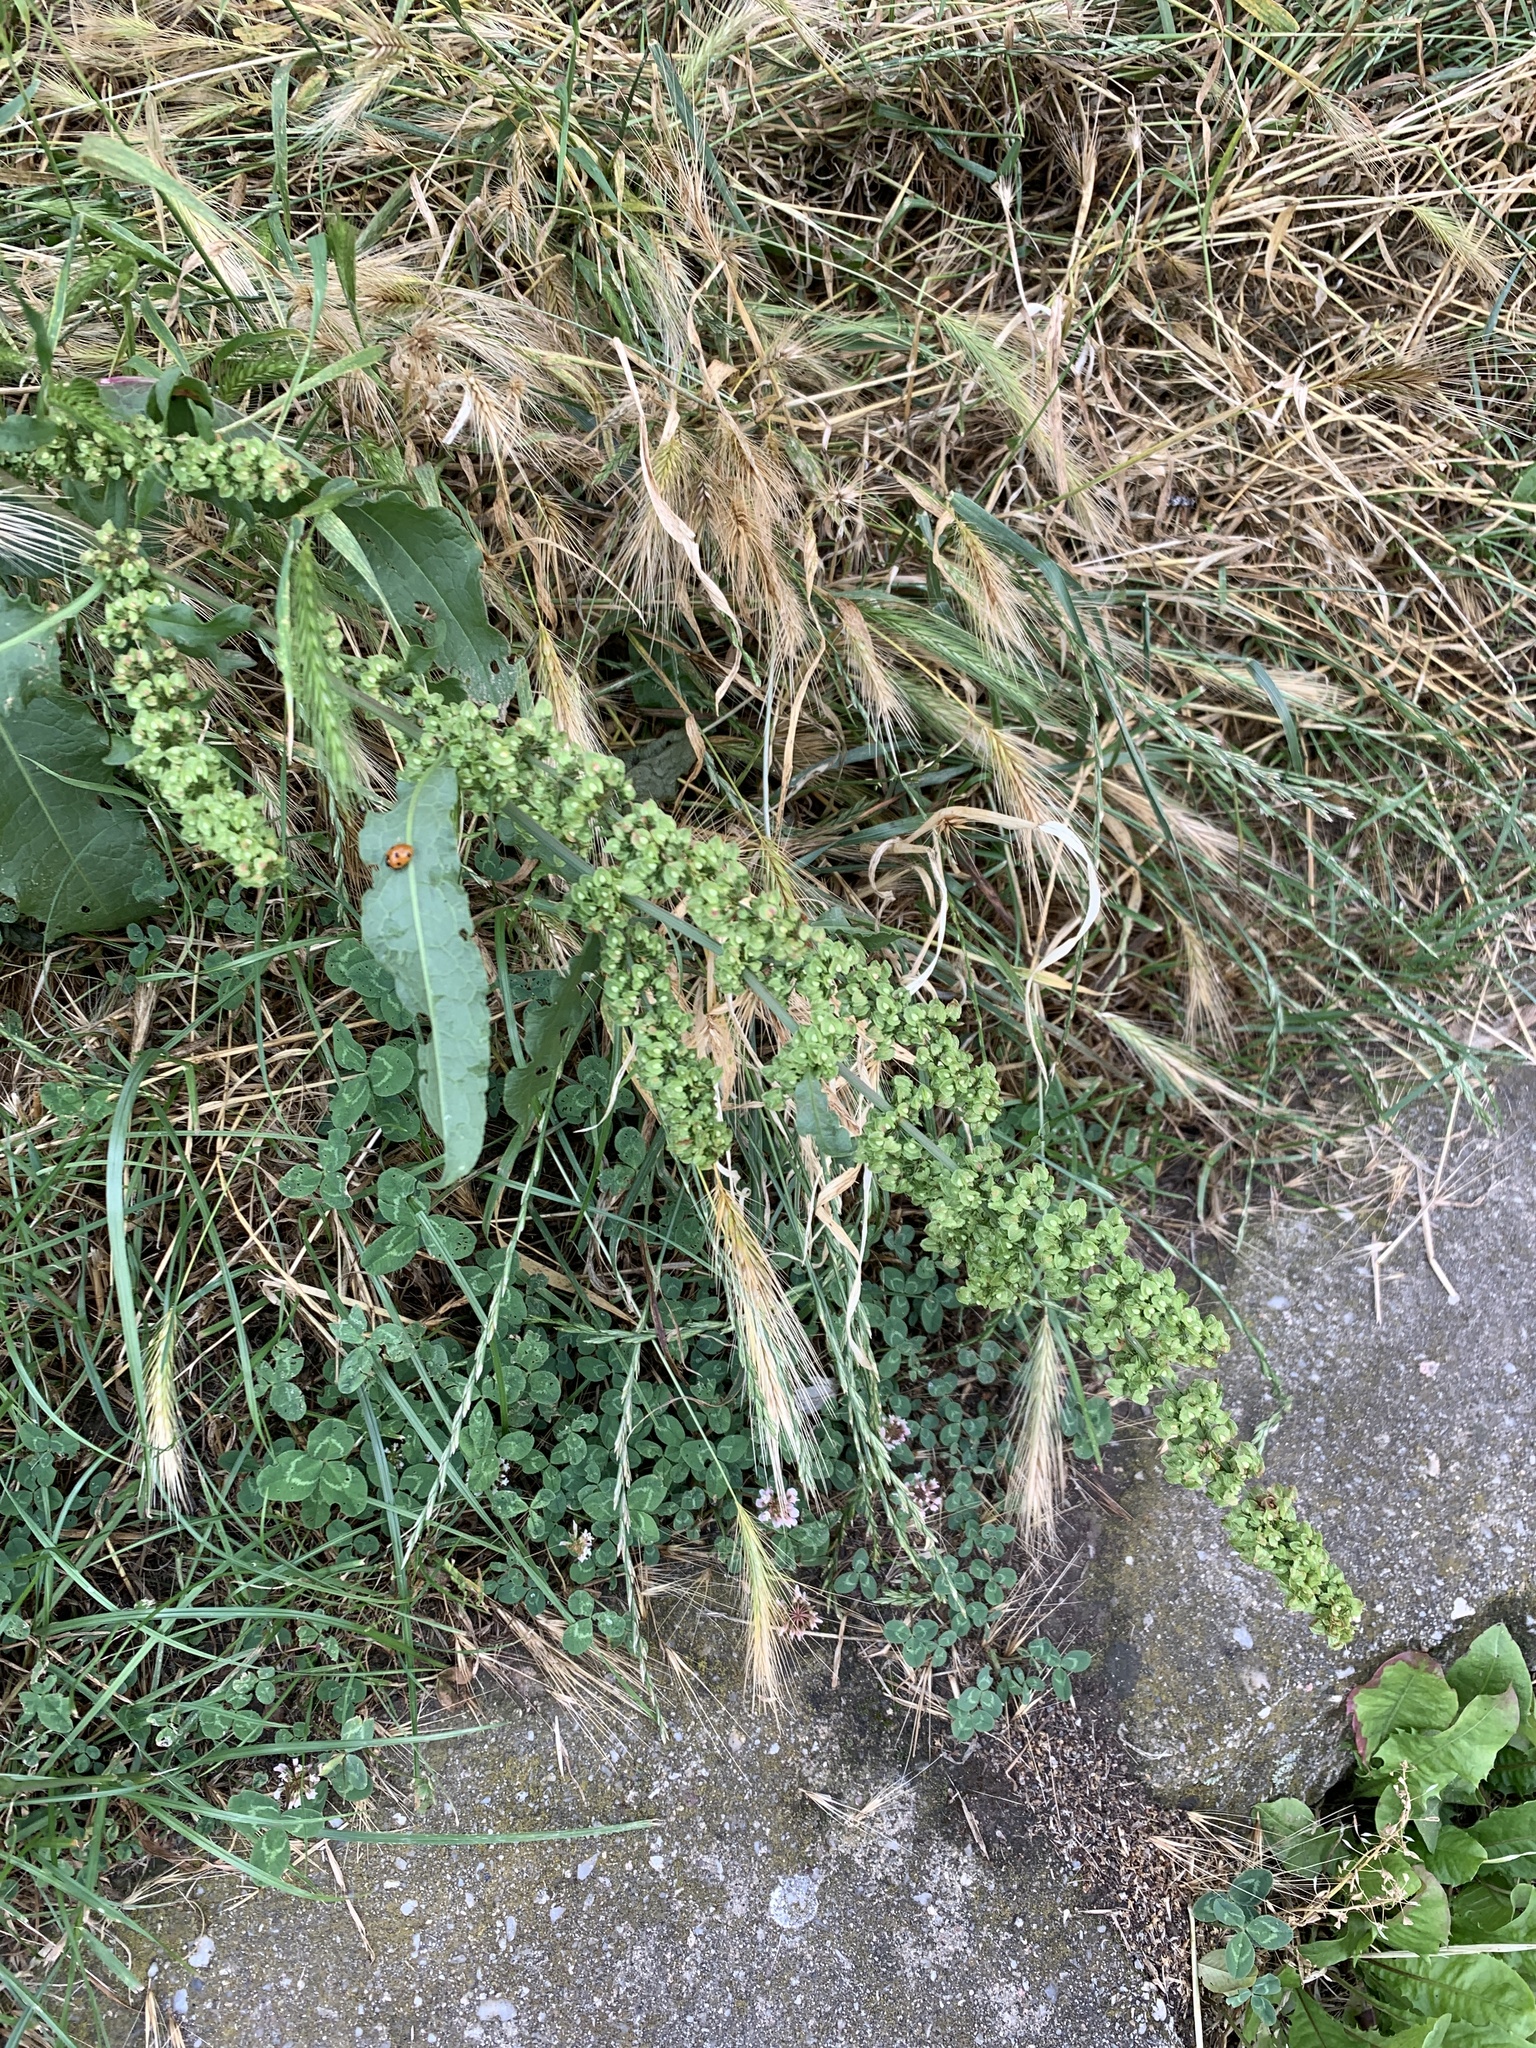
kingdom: Plantae
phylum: Tracheophyta
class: Magnoliopsida
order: Caryophyllales
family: Polygonaceae
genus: Rumex
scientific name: Rumex crispus
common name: Curled dock
